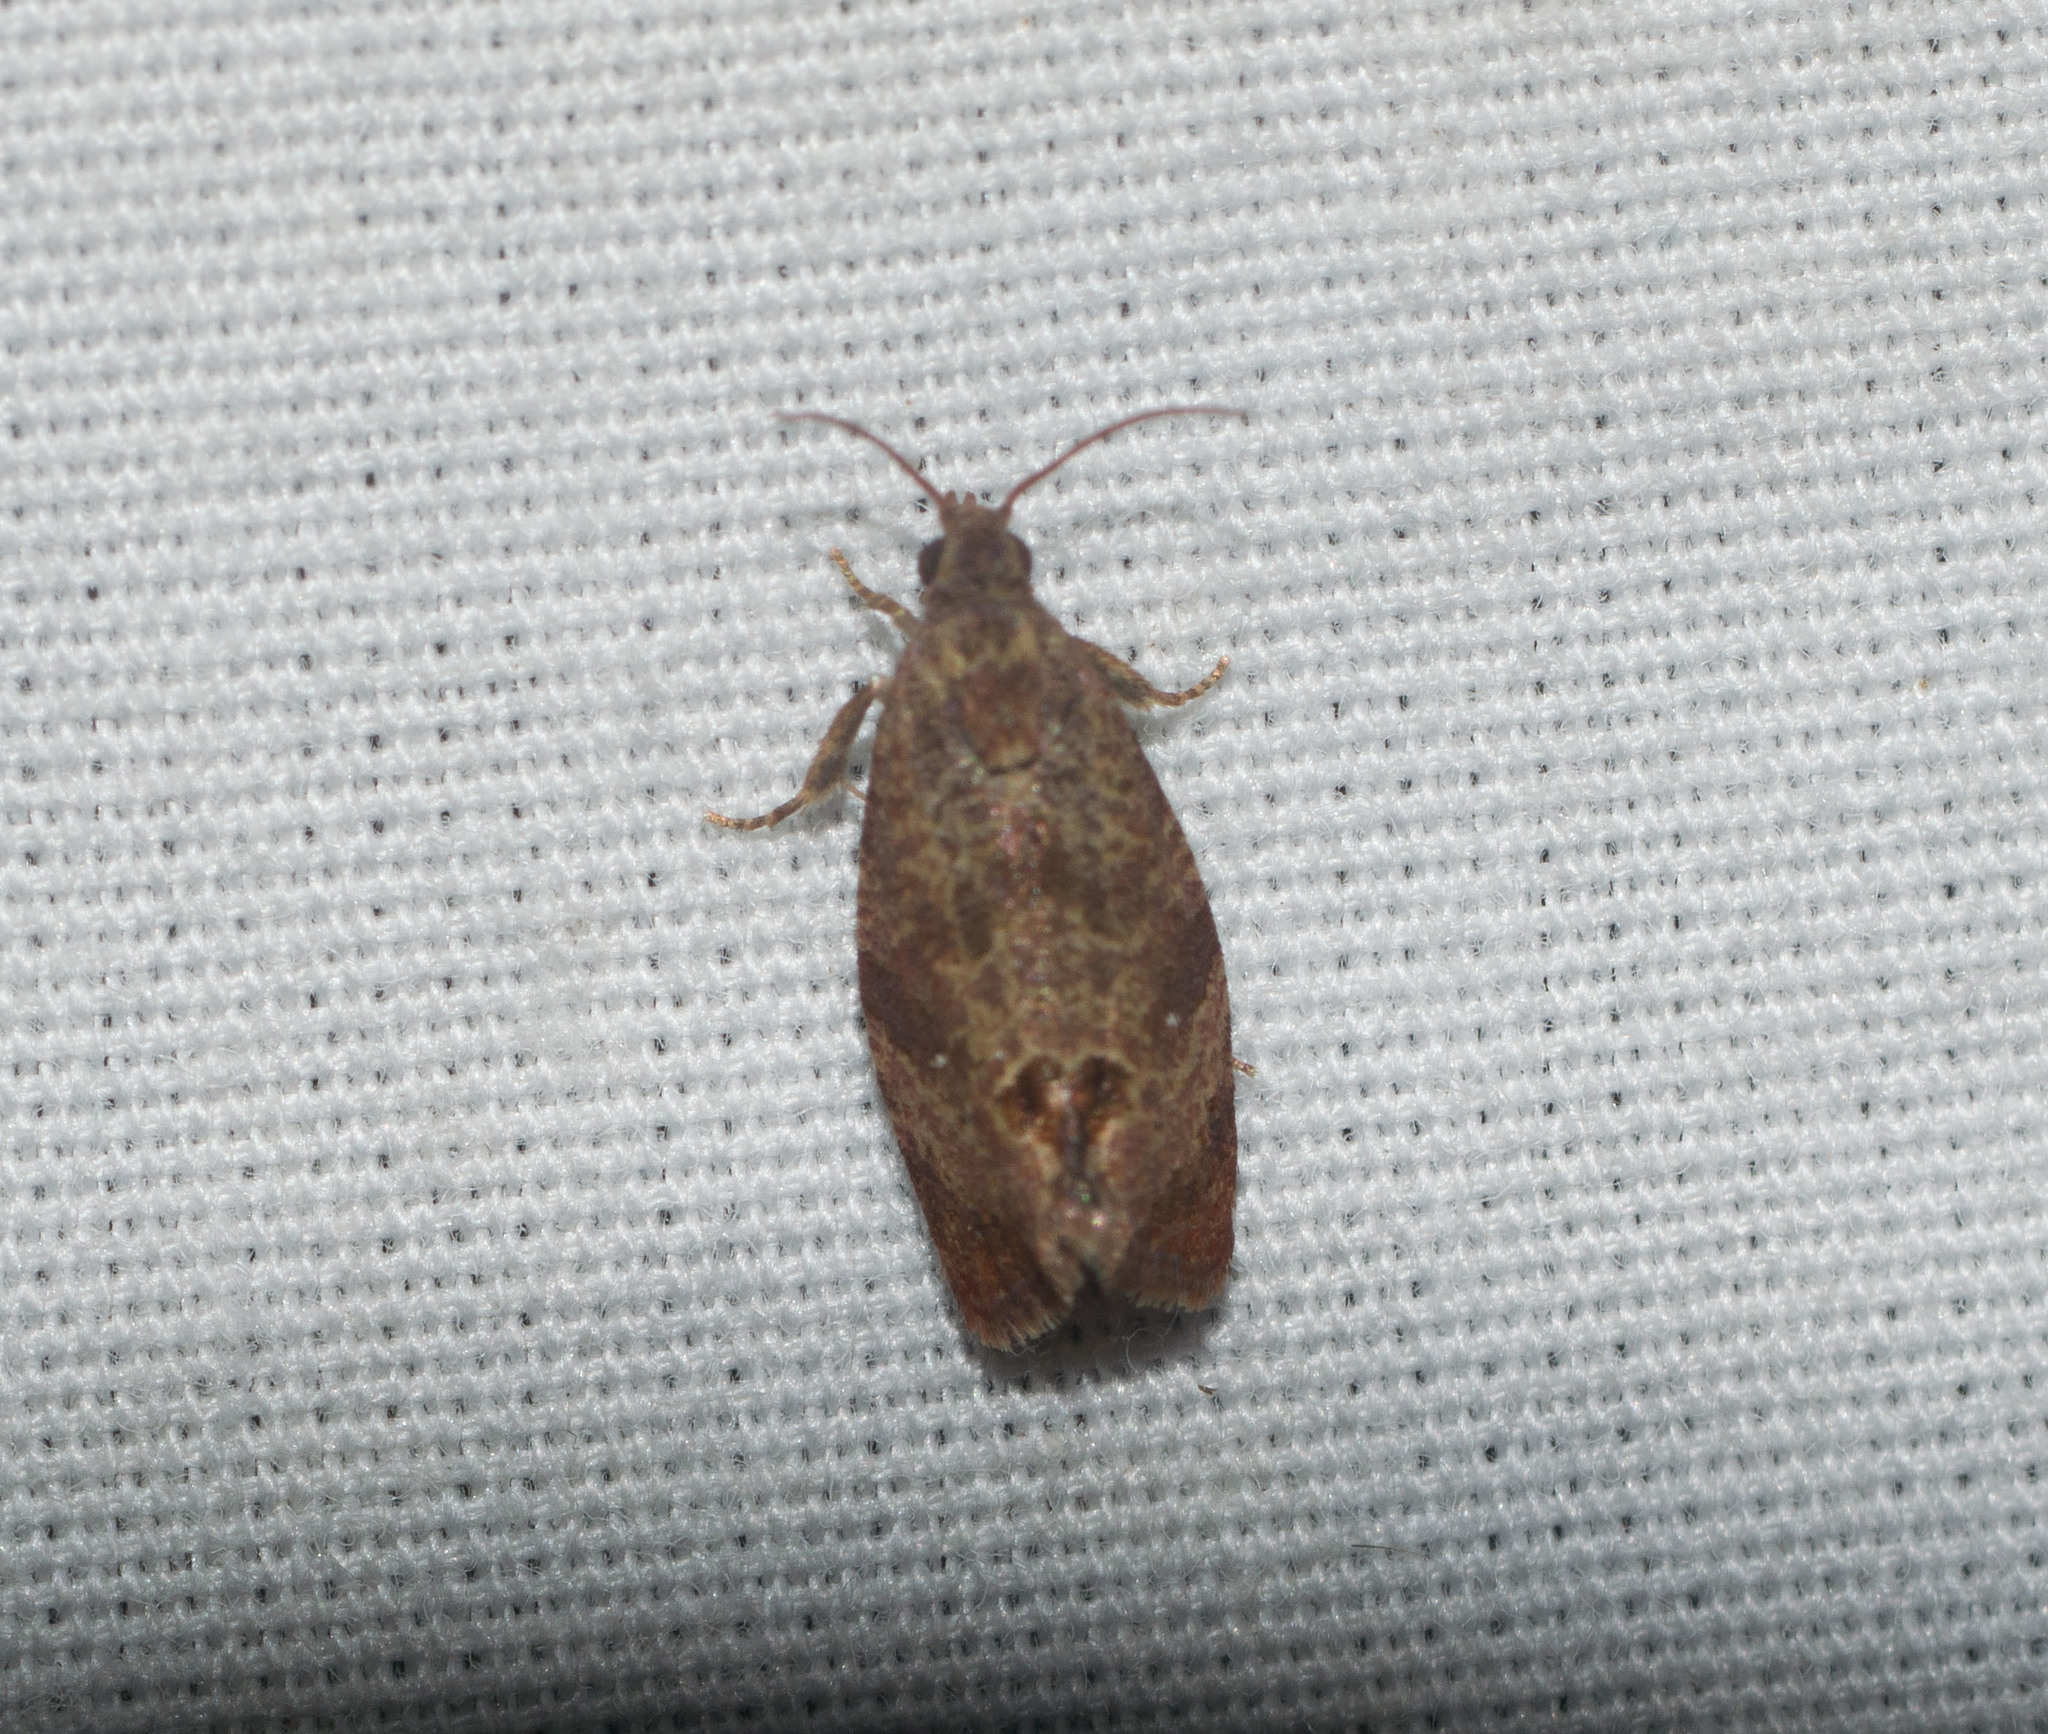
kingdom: Animalia
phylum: Arthropoda
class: Insecta
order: Lepidoptera
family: Tortricidae
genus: Cryptophlebia
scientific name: Cryptophlebia illepida
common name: Moth
